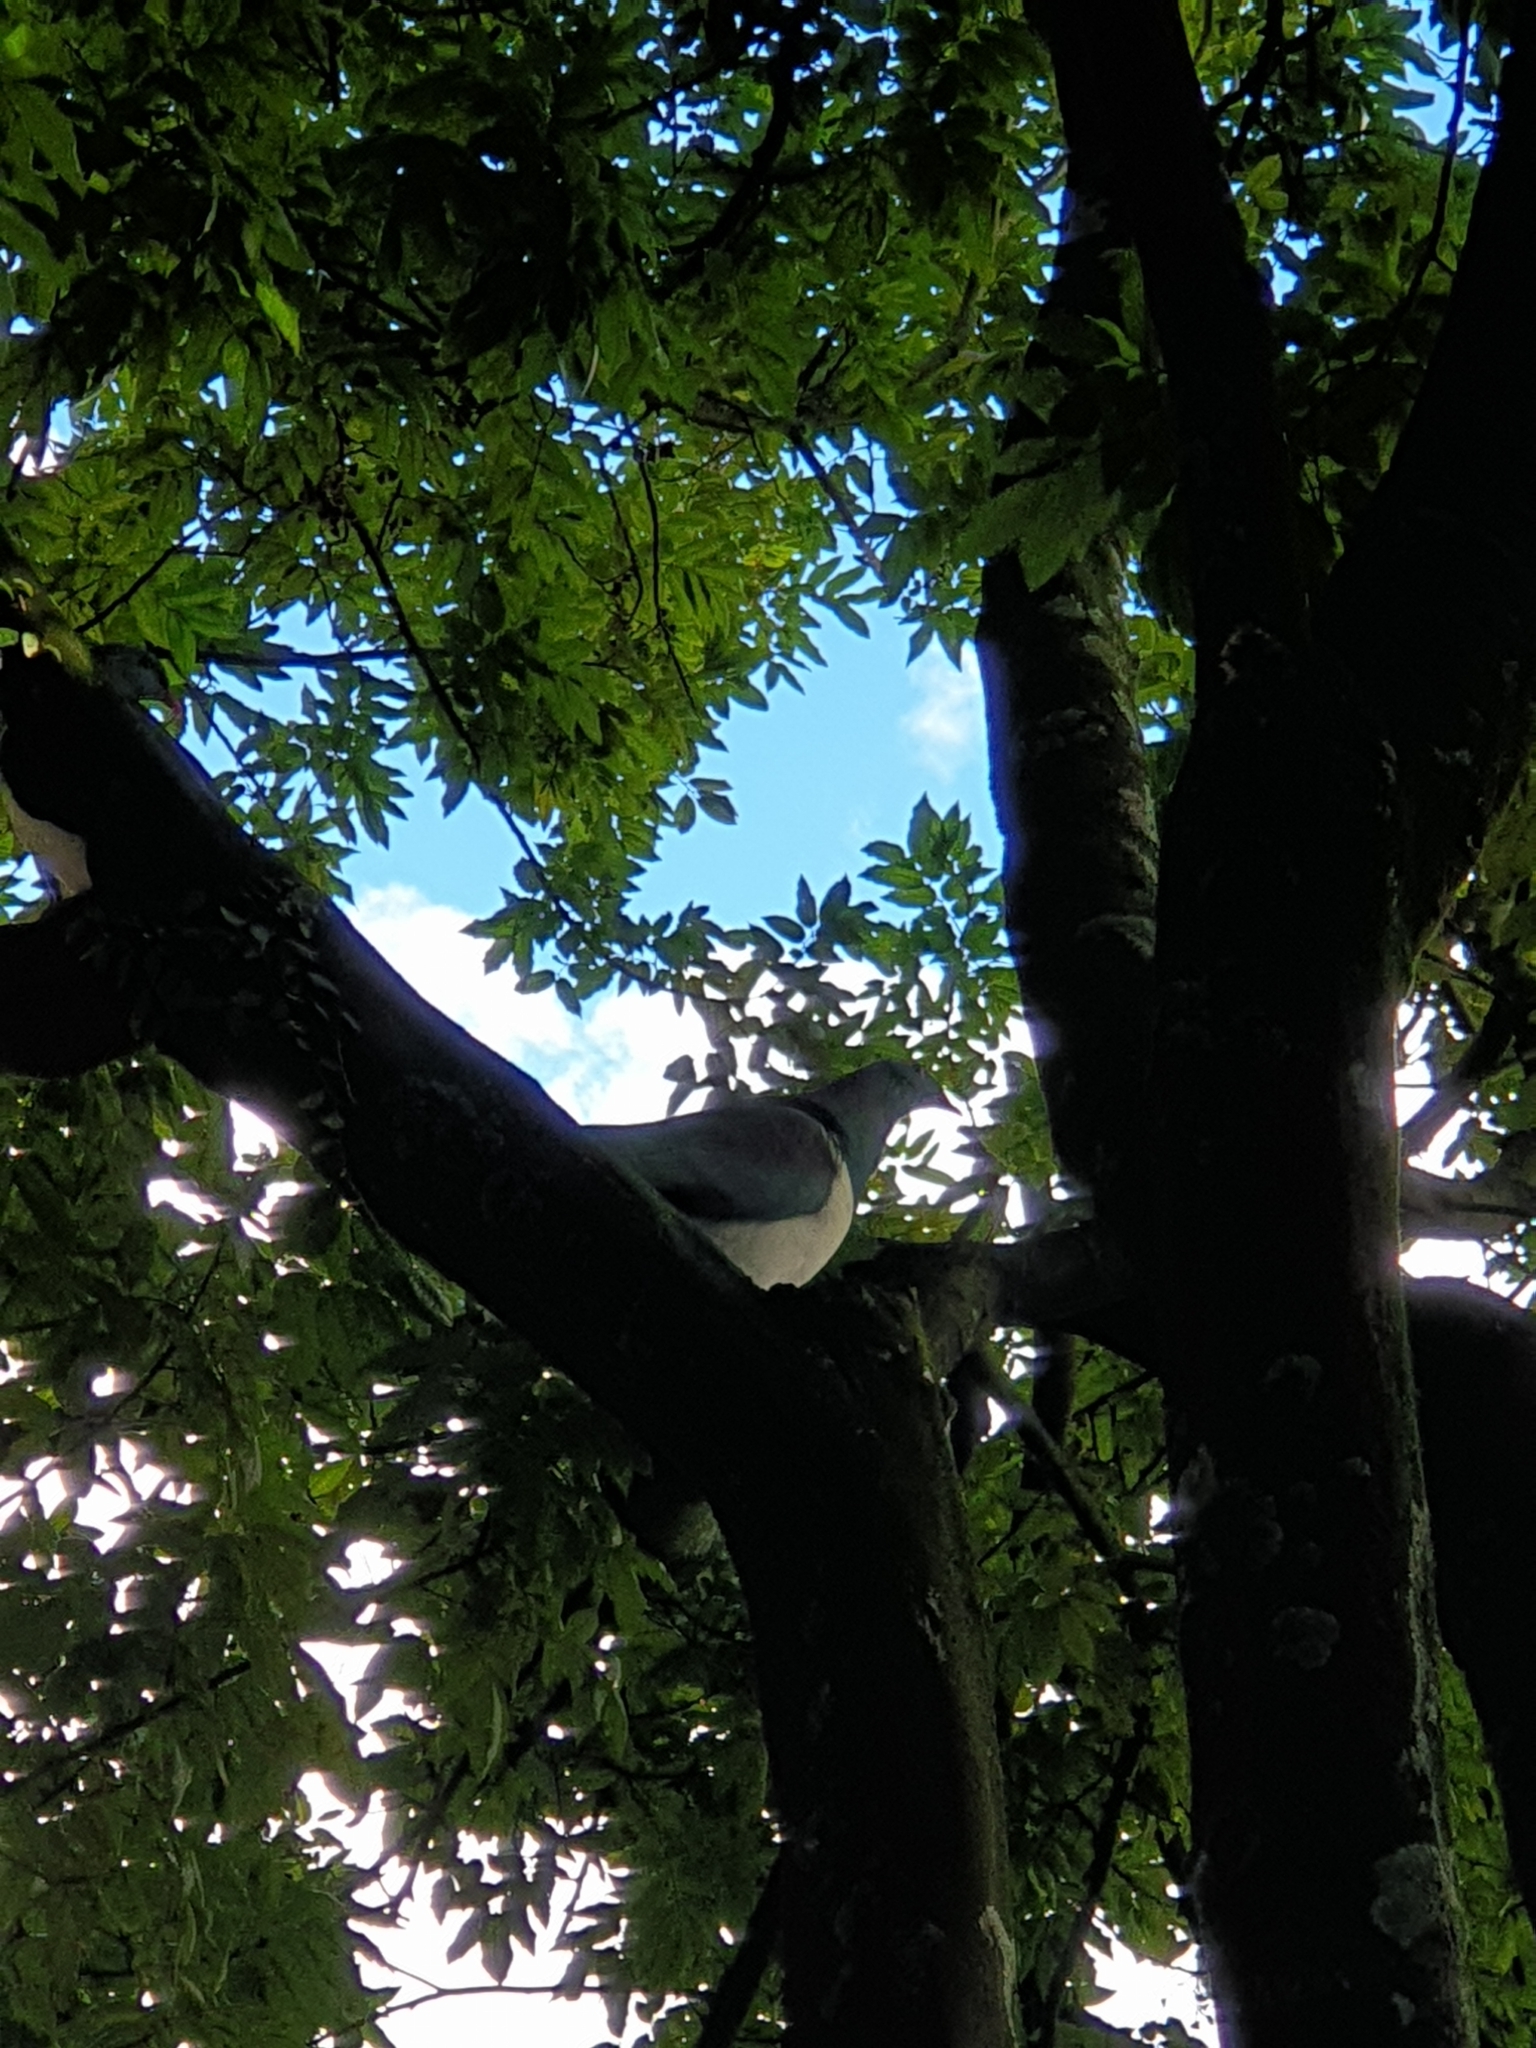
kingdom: Animalia
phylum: Chordata
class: Aves
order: Columbiformes
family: Columbidae
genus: Hemiphaga
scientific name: Hemiphaga novaeseelandiae
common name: New zealand pigeon
